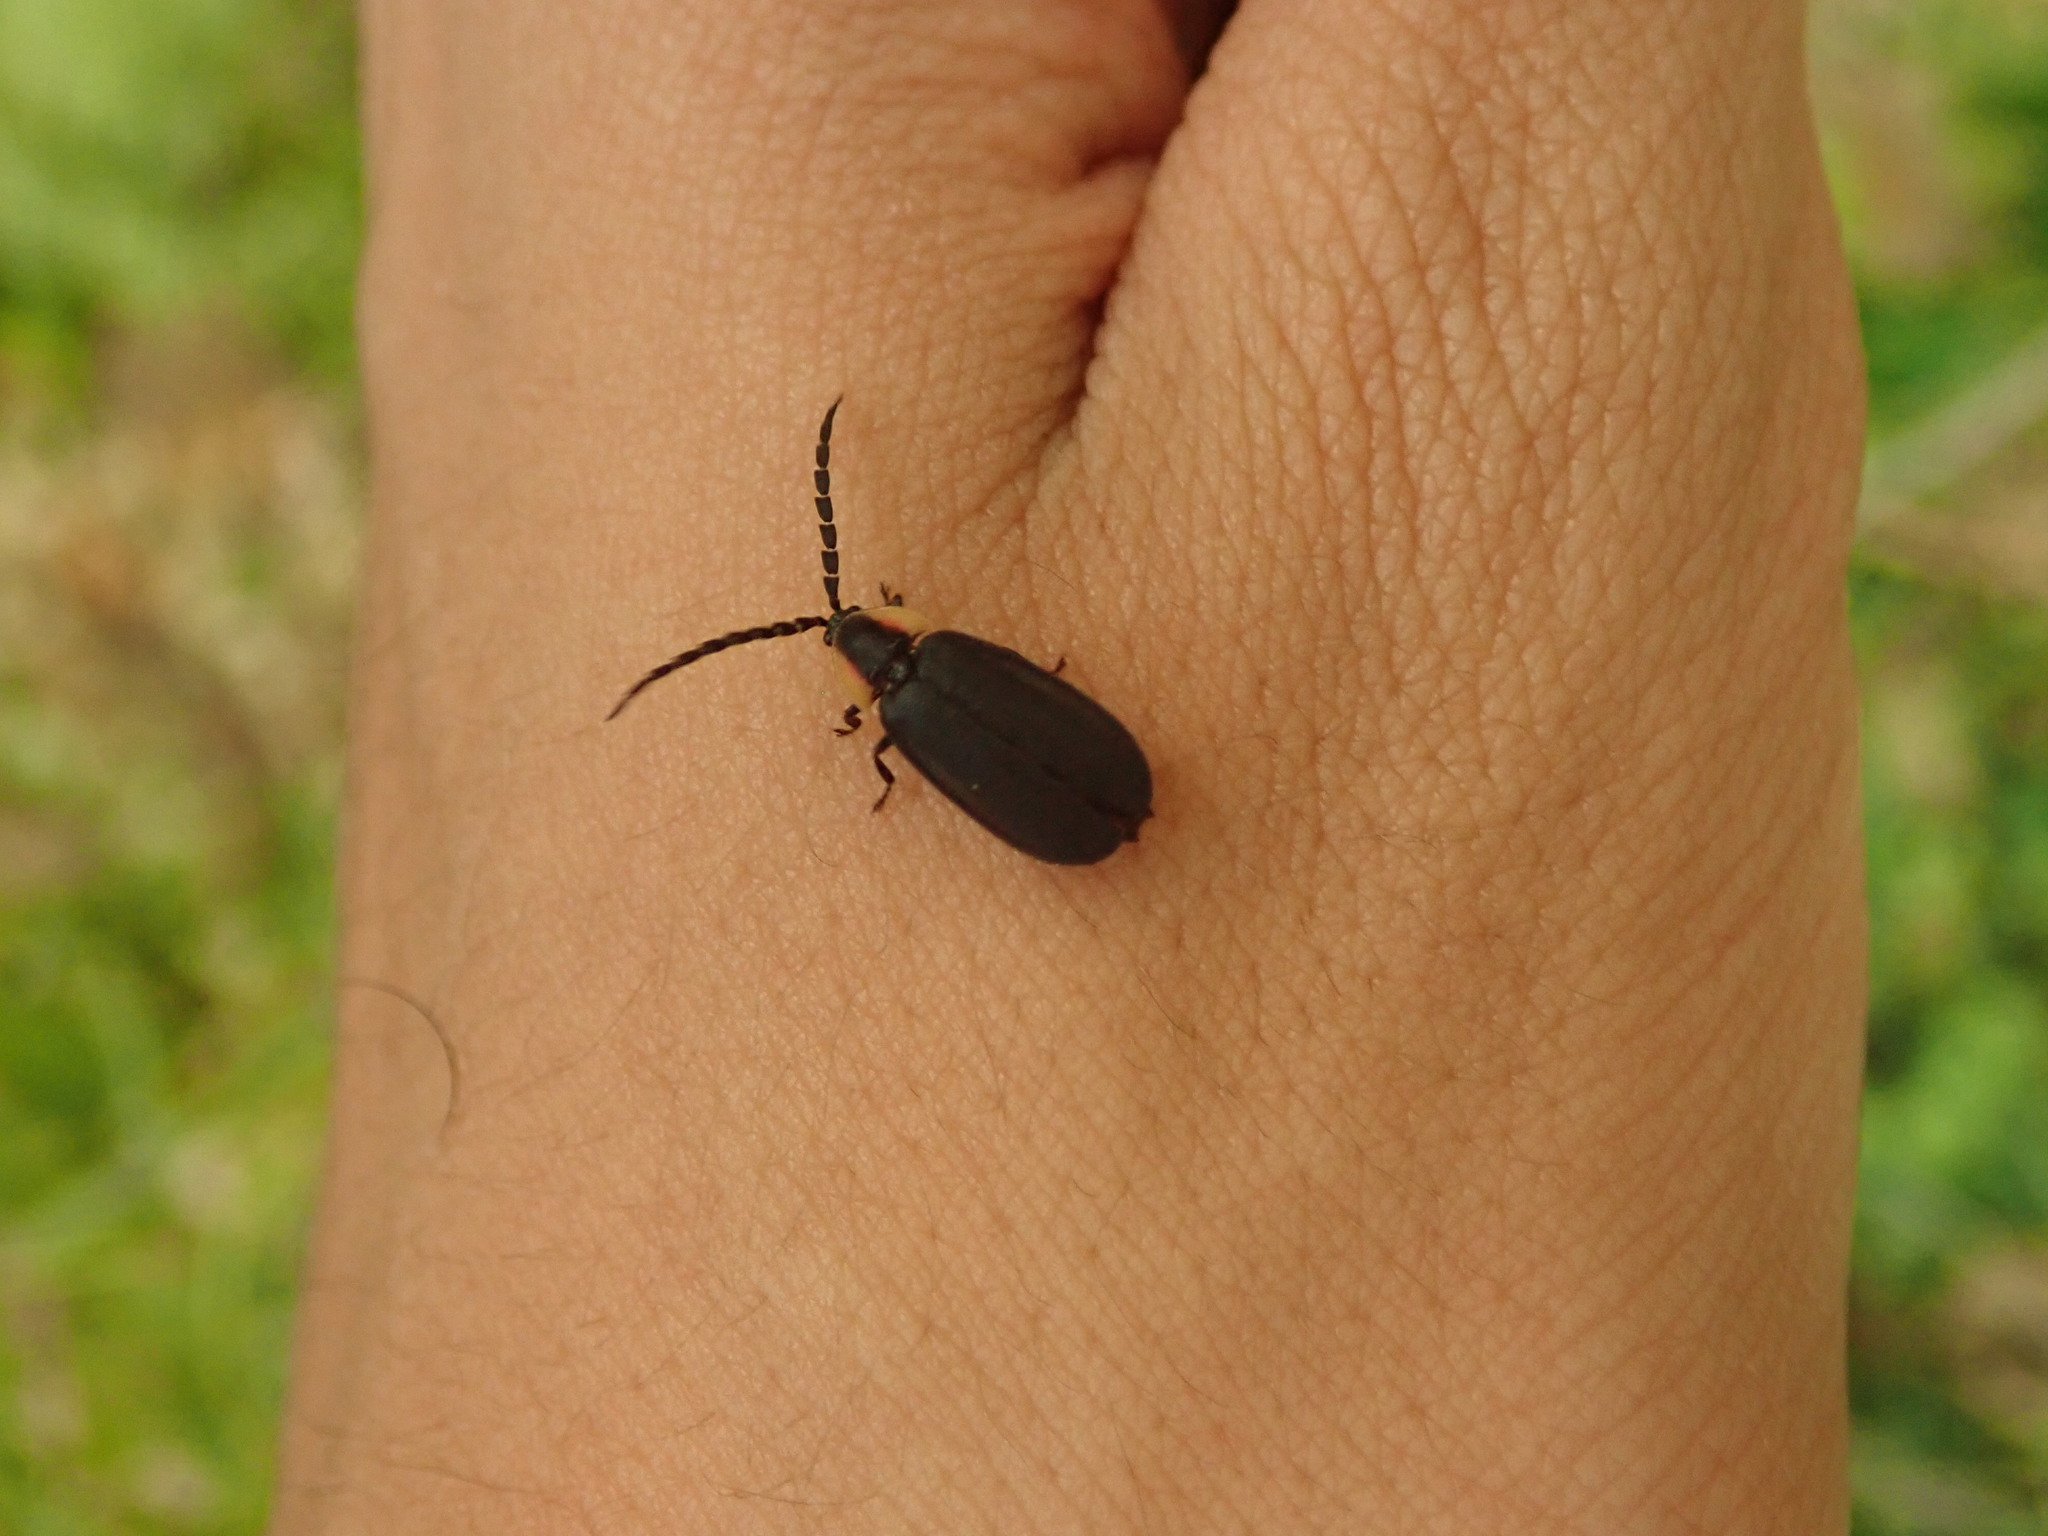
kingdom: Animalia
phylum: Arthropoda
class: Insecta
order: Coleoptera
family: Lampyridae
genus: Lucidota
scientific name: Lucidota atra
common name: Black firefly
